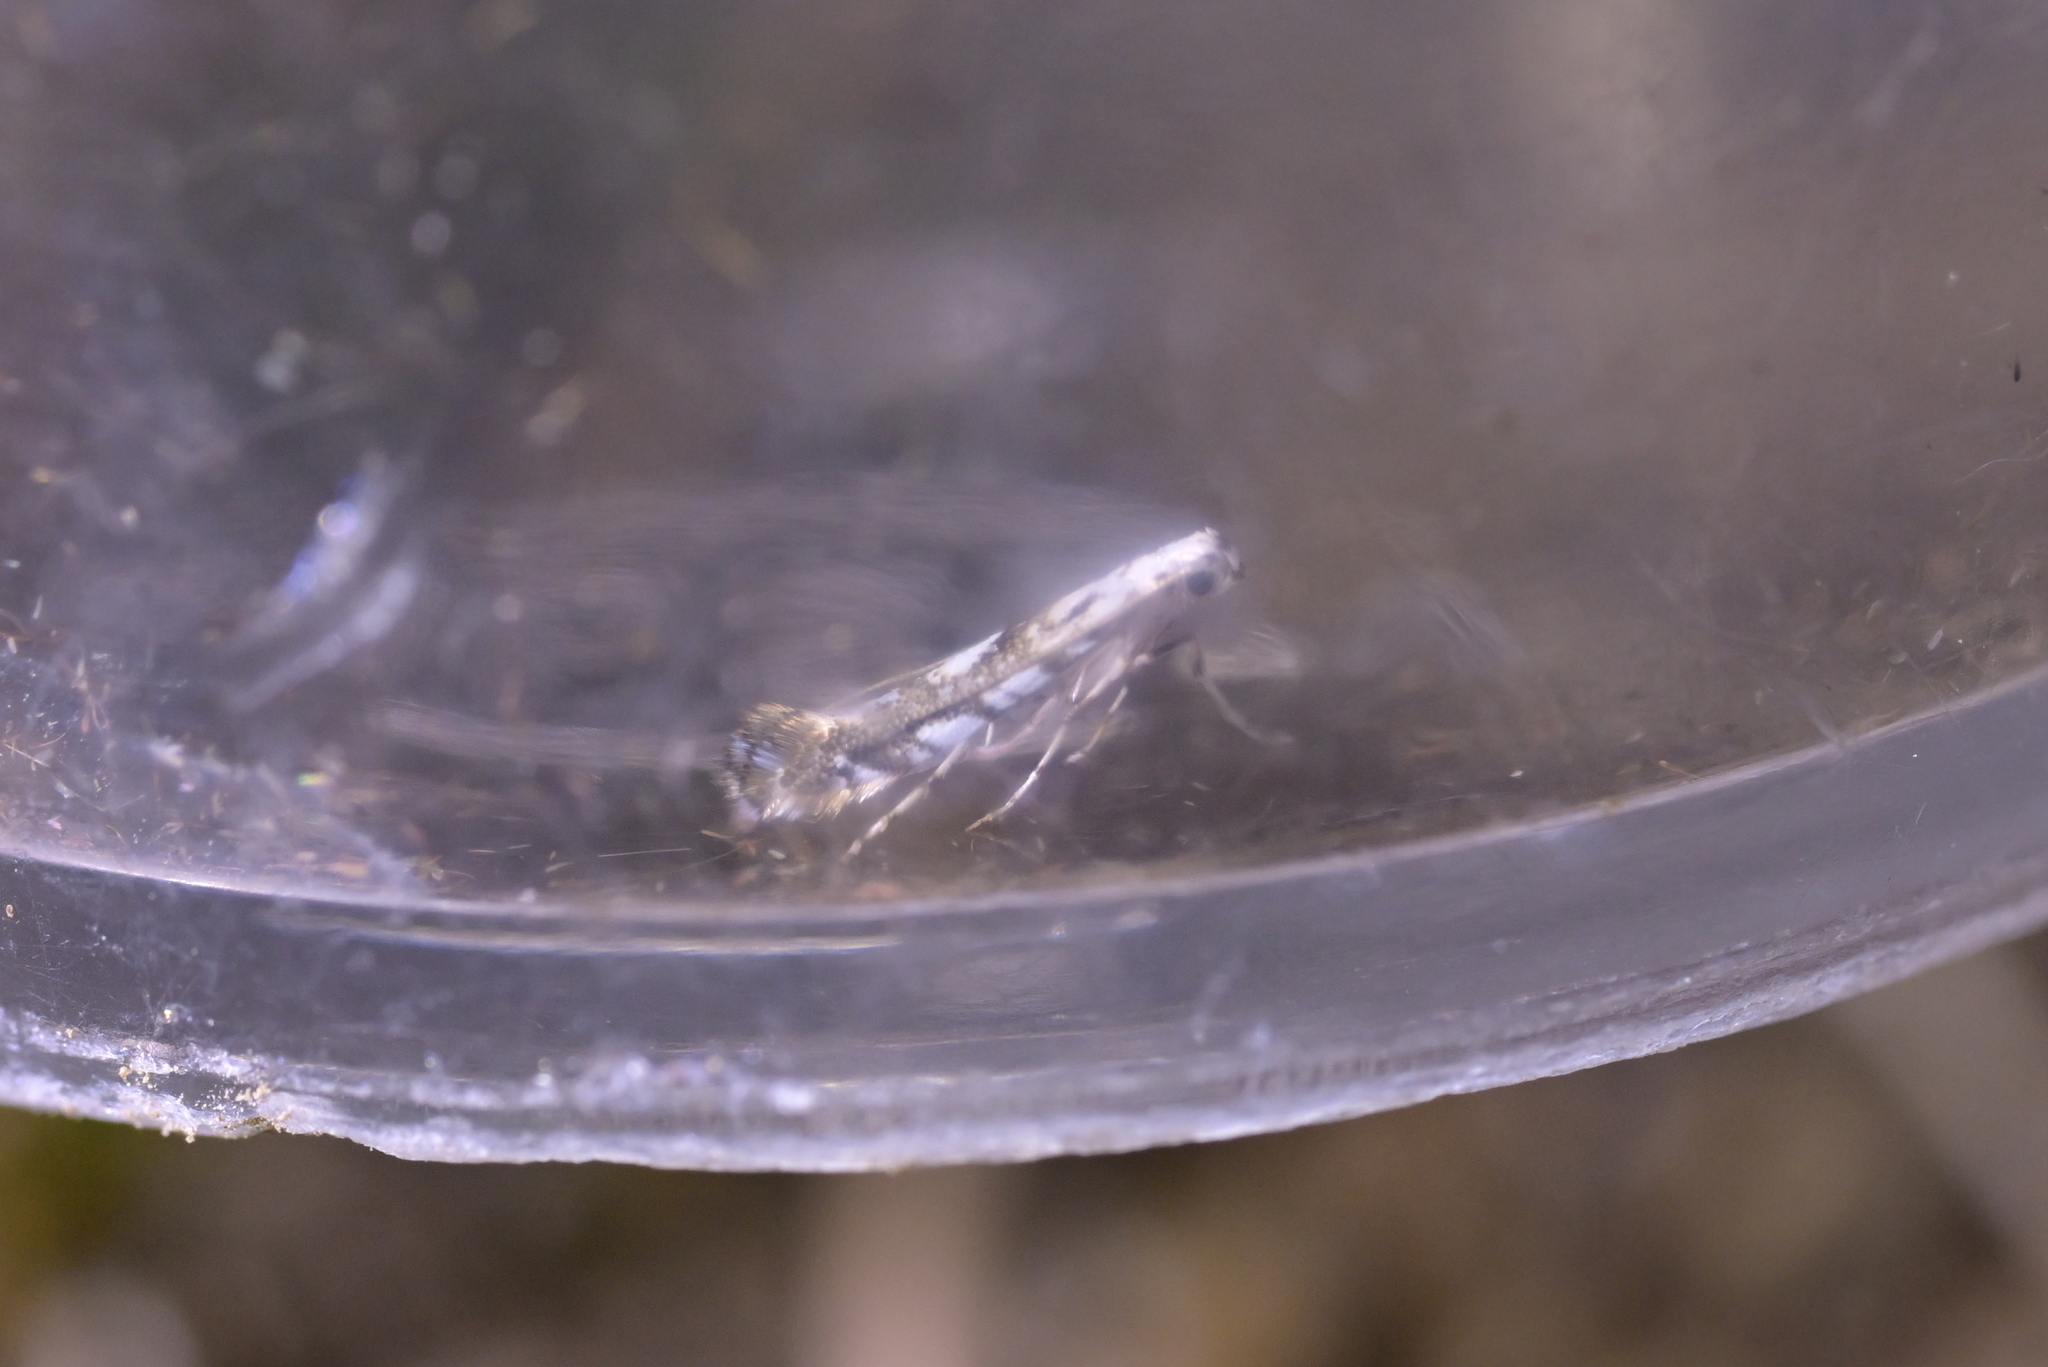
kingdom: Animalia
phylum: Arthropoda
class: Insecta
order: Lepidoptera
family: Gracillariidae
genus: Eumetriochroa
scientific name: Eumetriochroa panacitorsens
